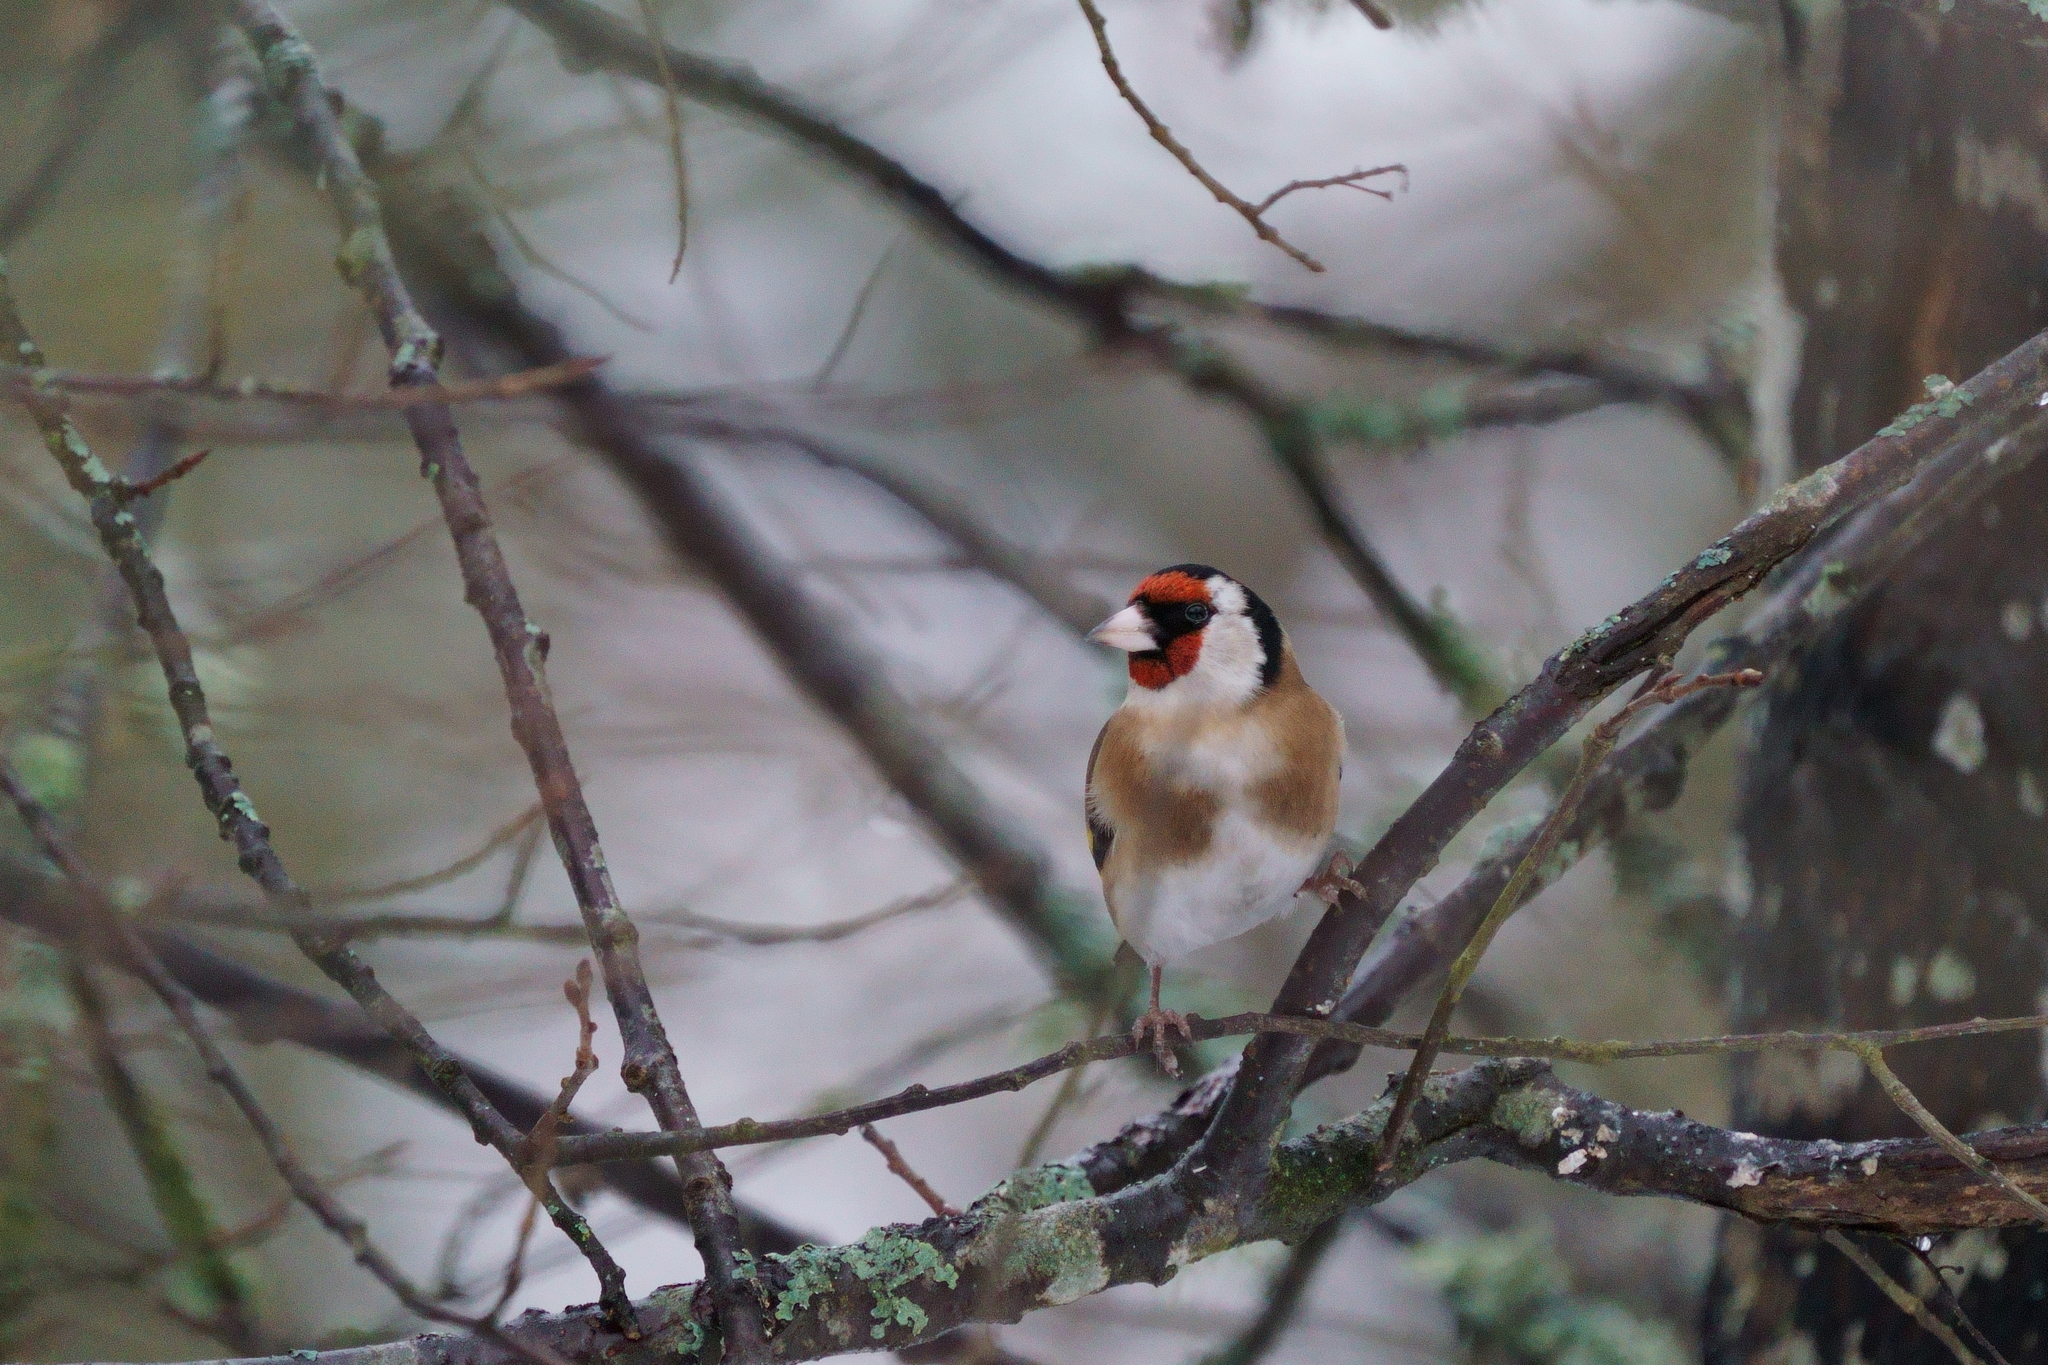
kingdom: Animalia
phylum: Chordata
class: Aves
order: Passeriformes
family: Fringillidae
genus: Carduelis
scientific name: Carduelis carduelis
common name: European goldfinch
